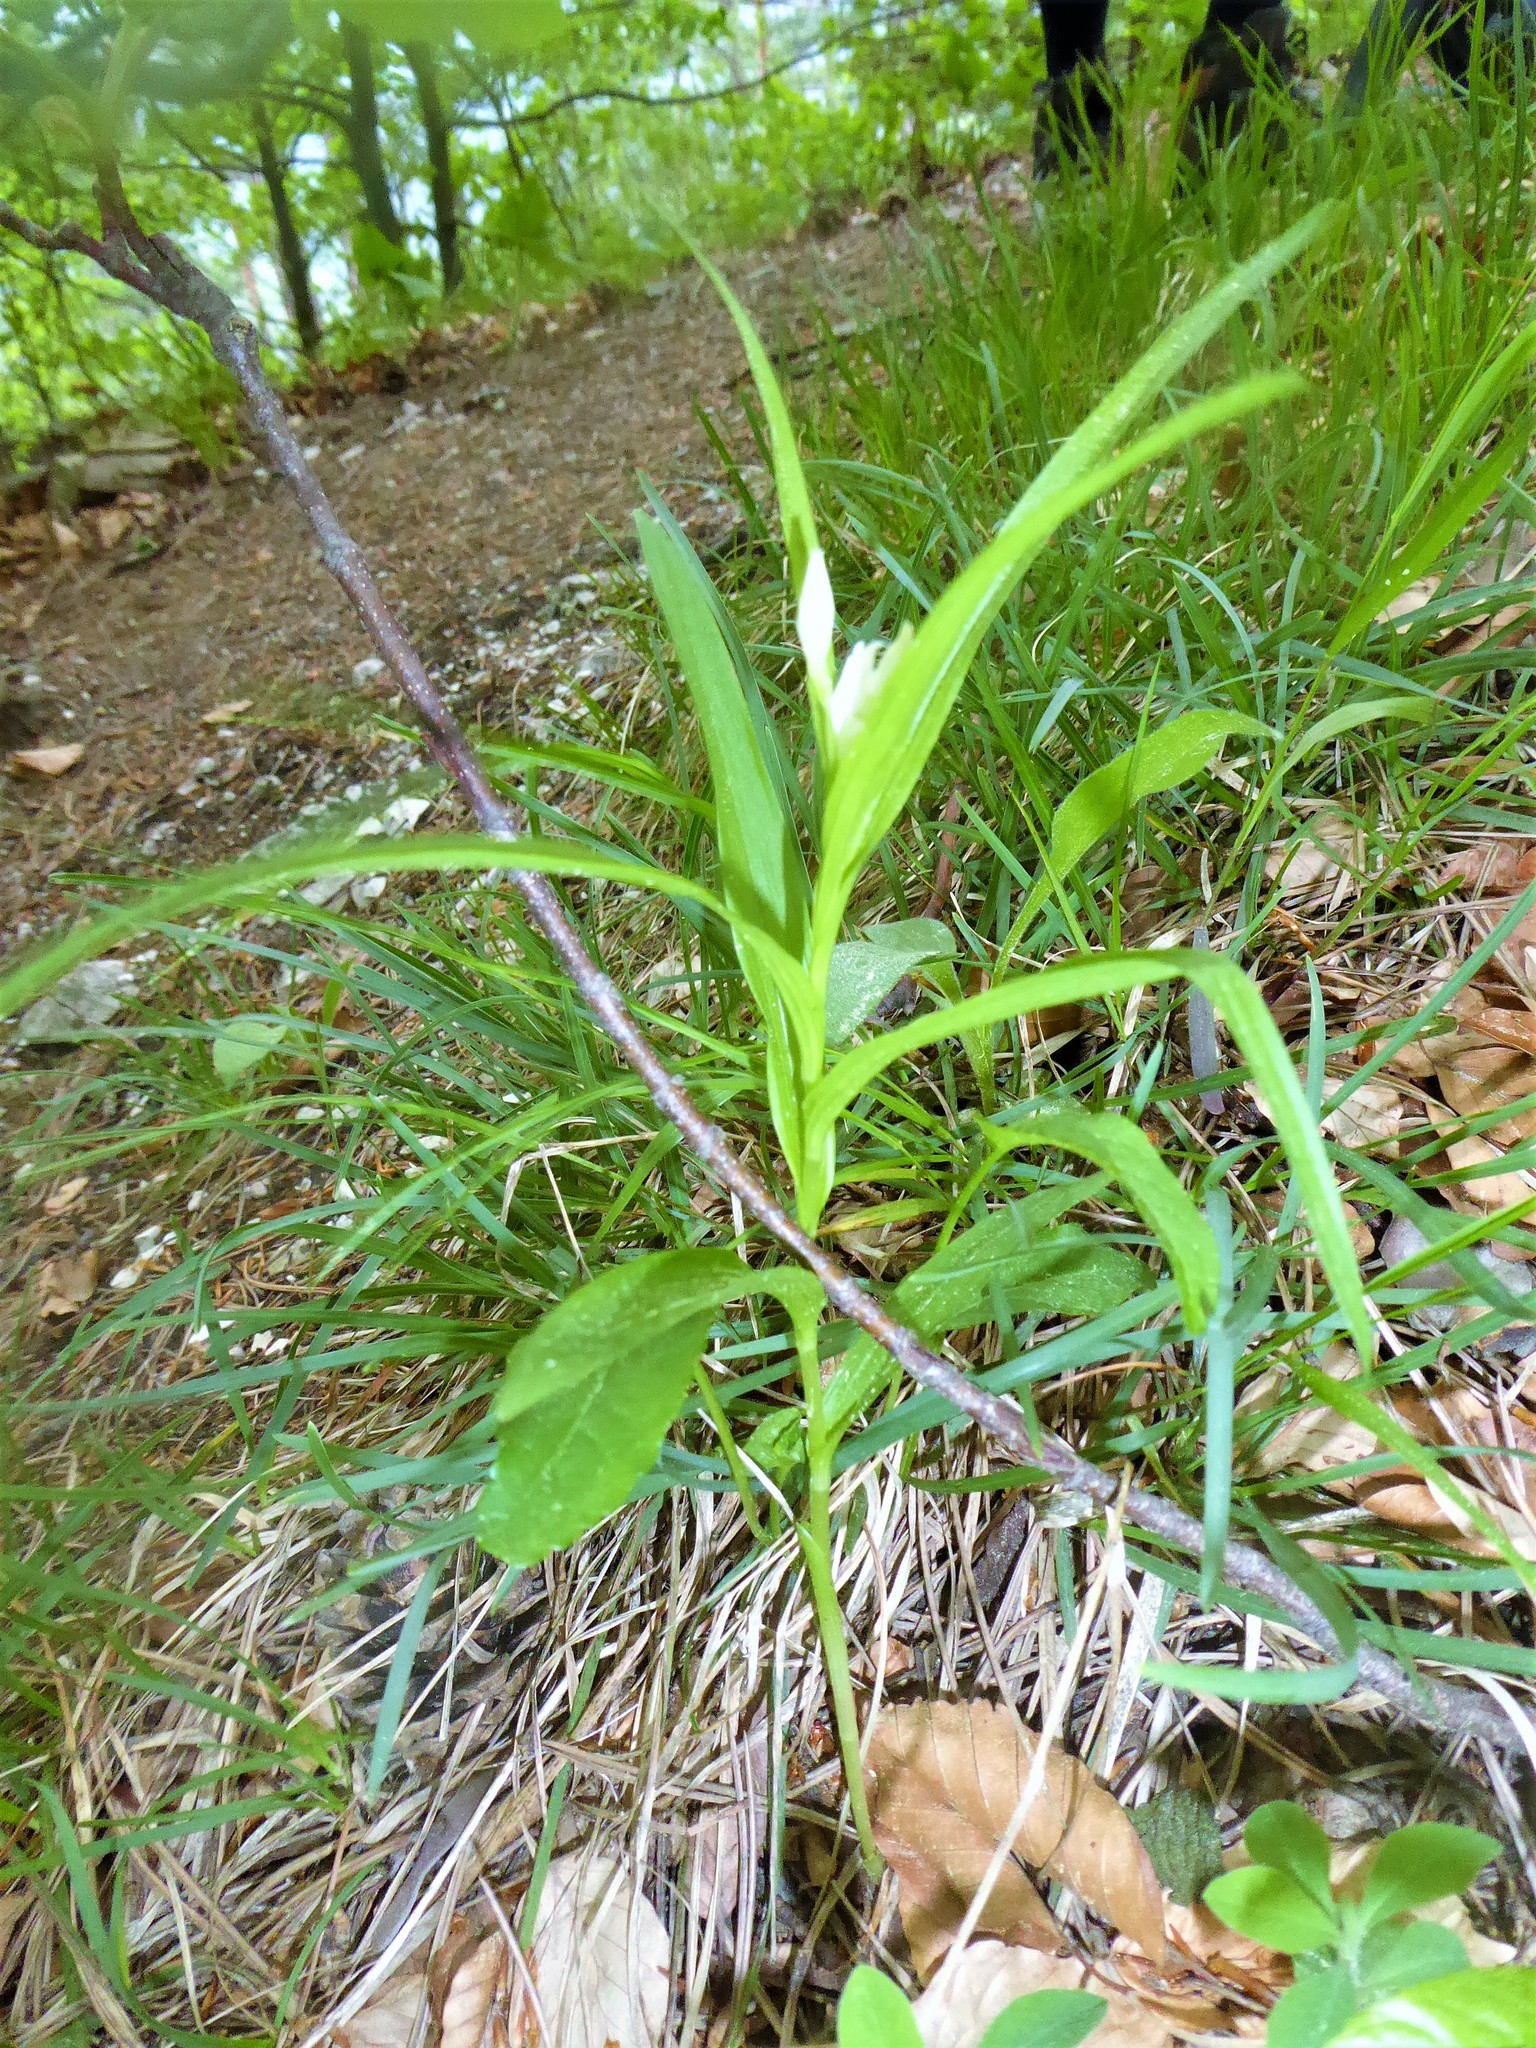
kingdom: Plantae
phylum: Tracheophyta
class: Liliopsida
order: Asparagales
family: Orchidaceae
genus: Cephalanthera
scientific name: Cephalanthera longifolia
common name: Narrow-leaved helleborine
